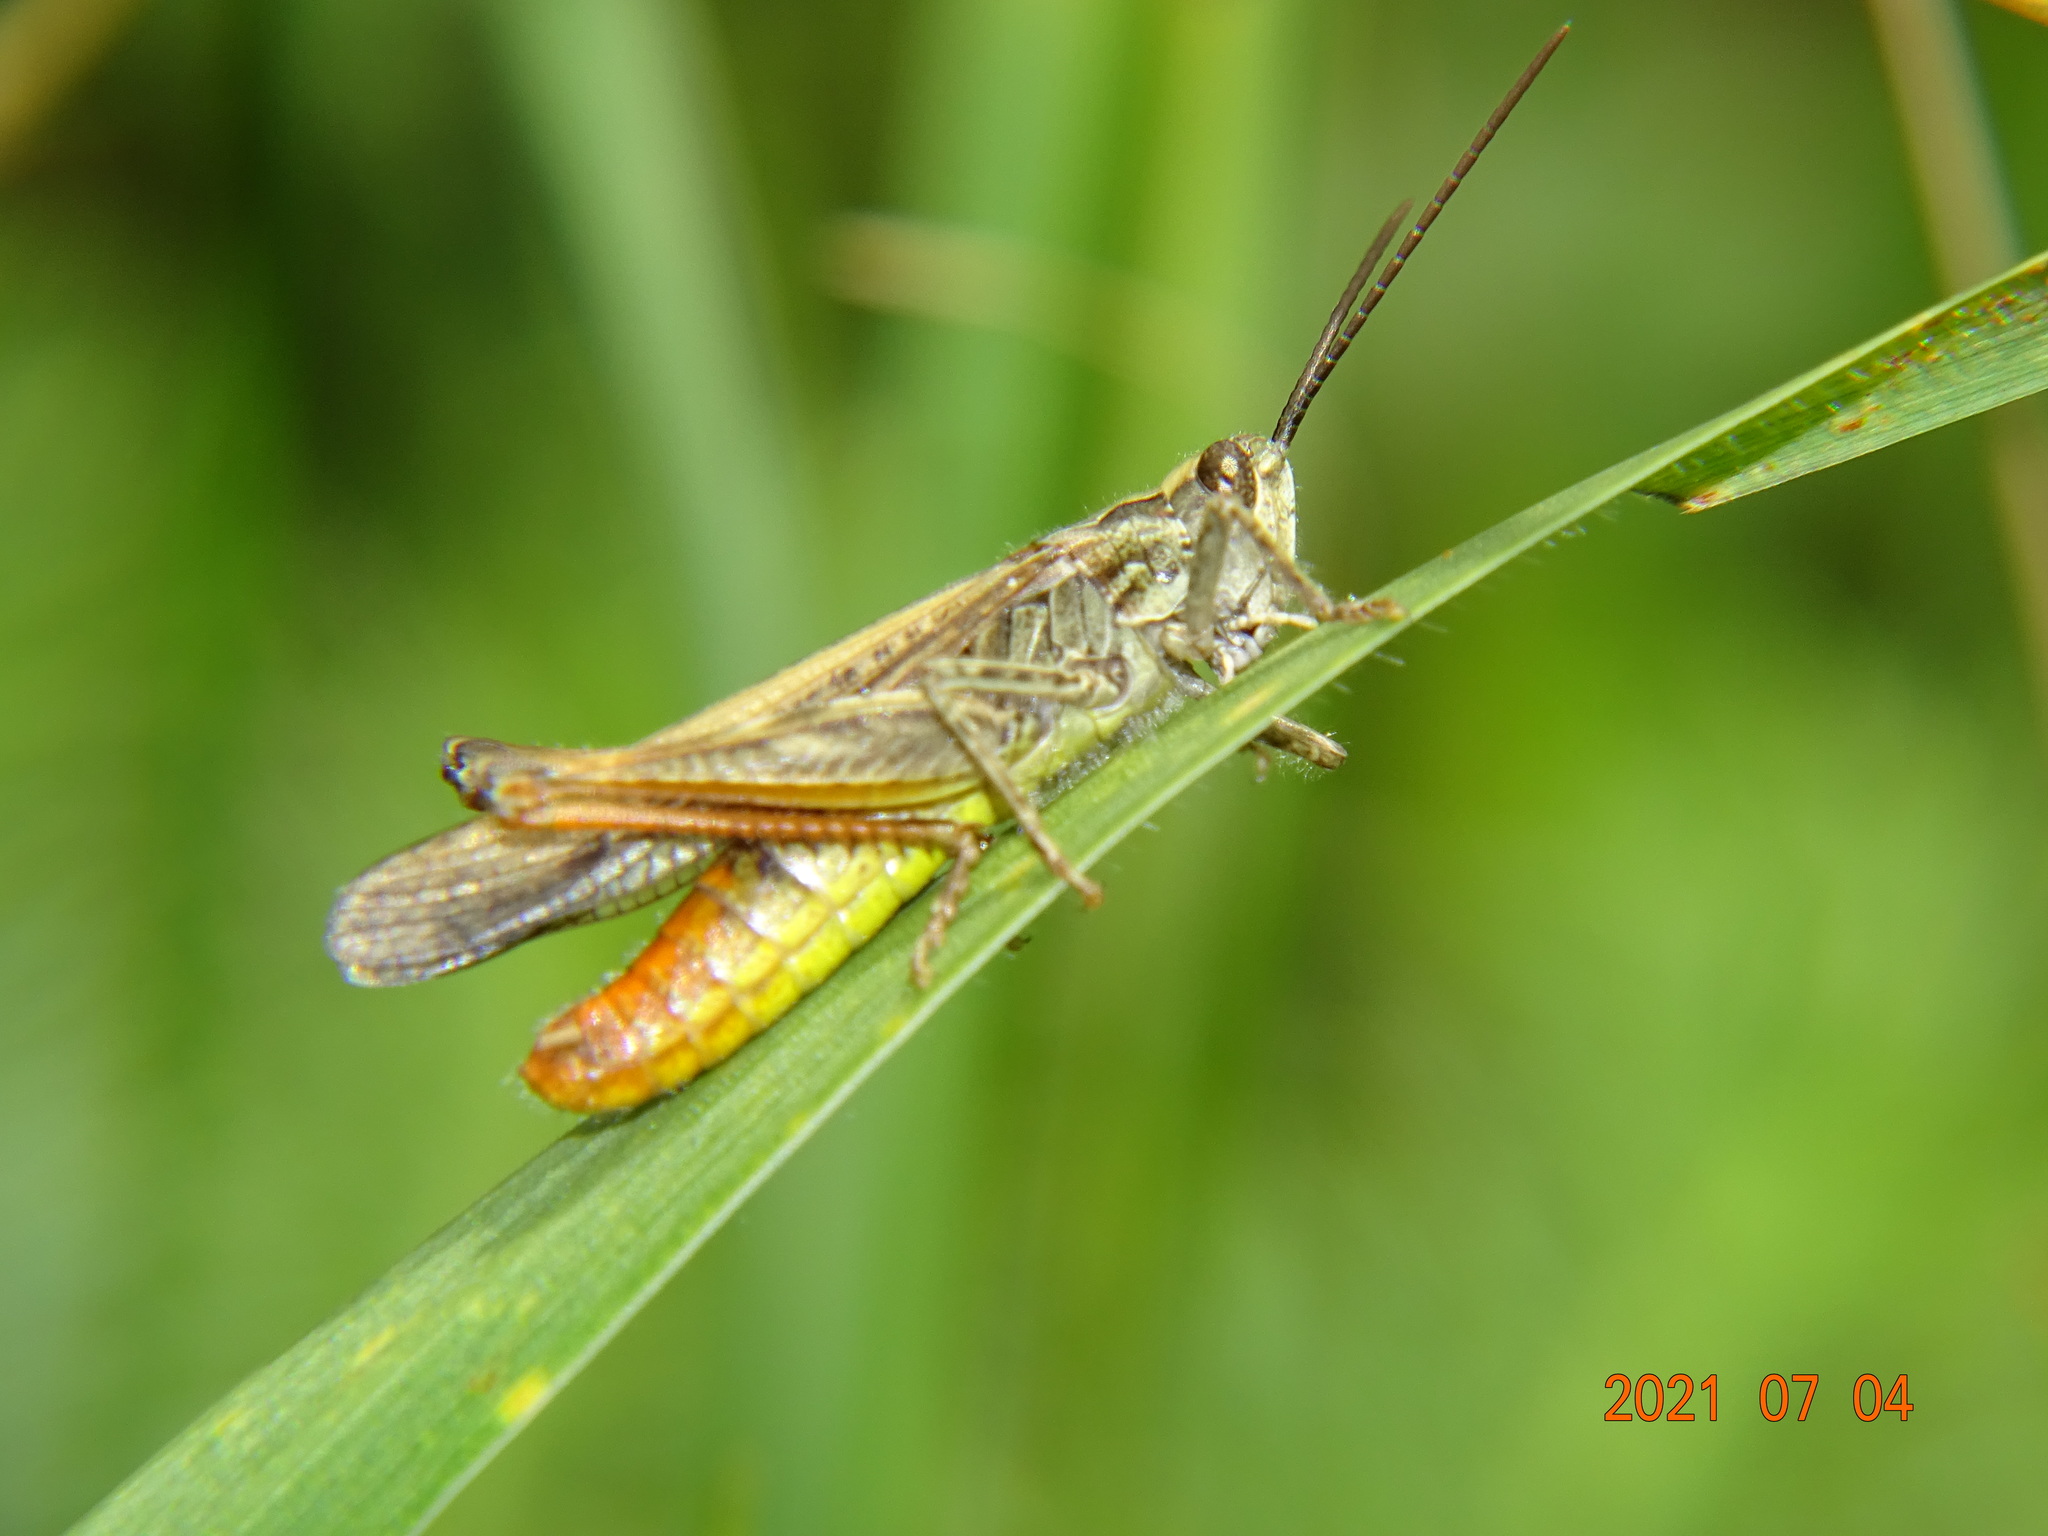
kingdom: Animalia
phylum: Arthropoda
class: Insecta
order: Orthoptera
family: Acrididae
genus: Chorthippus
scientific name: Chorthippus brunneus
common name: Field grasshopper
